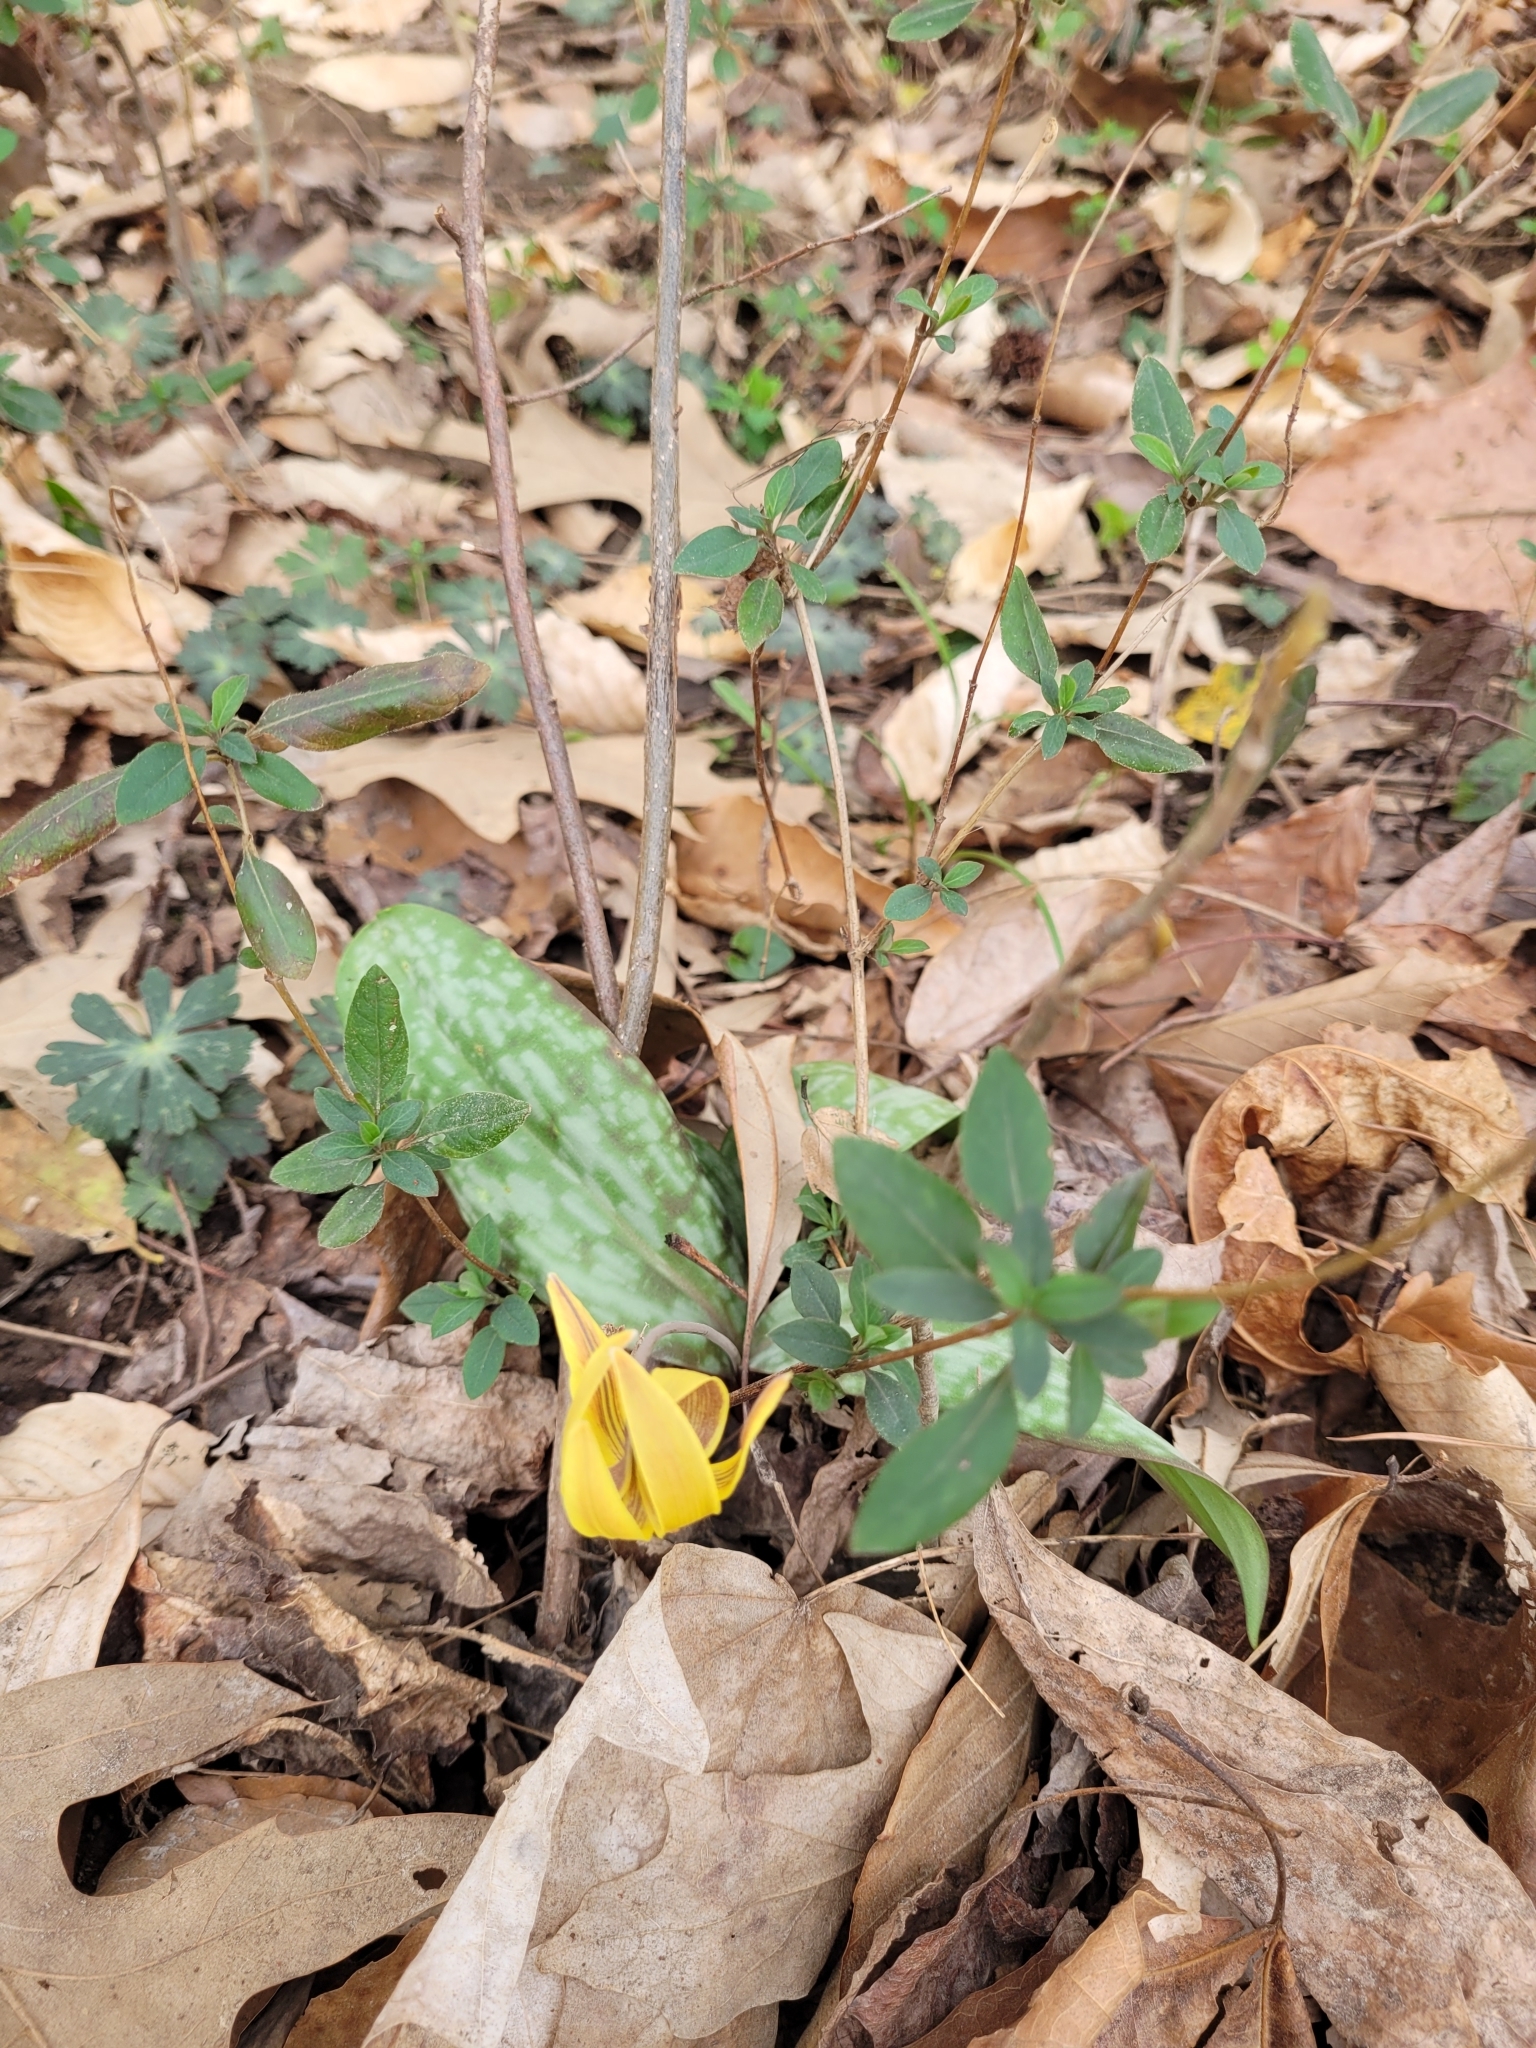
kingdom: Plantae
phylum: Tracheophyta
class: Liliopsida
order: Liliales
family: Liliaceae
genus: Erythronium
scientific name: Erythronium umbilicatum
